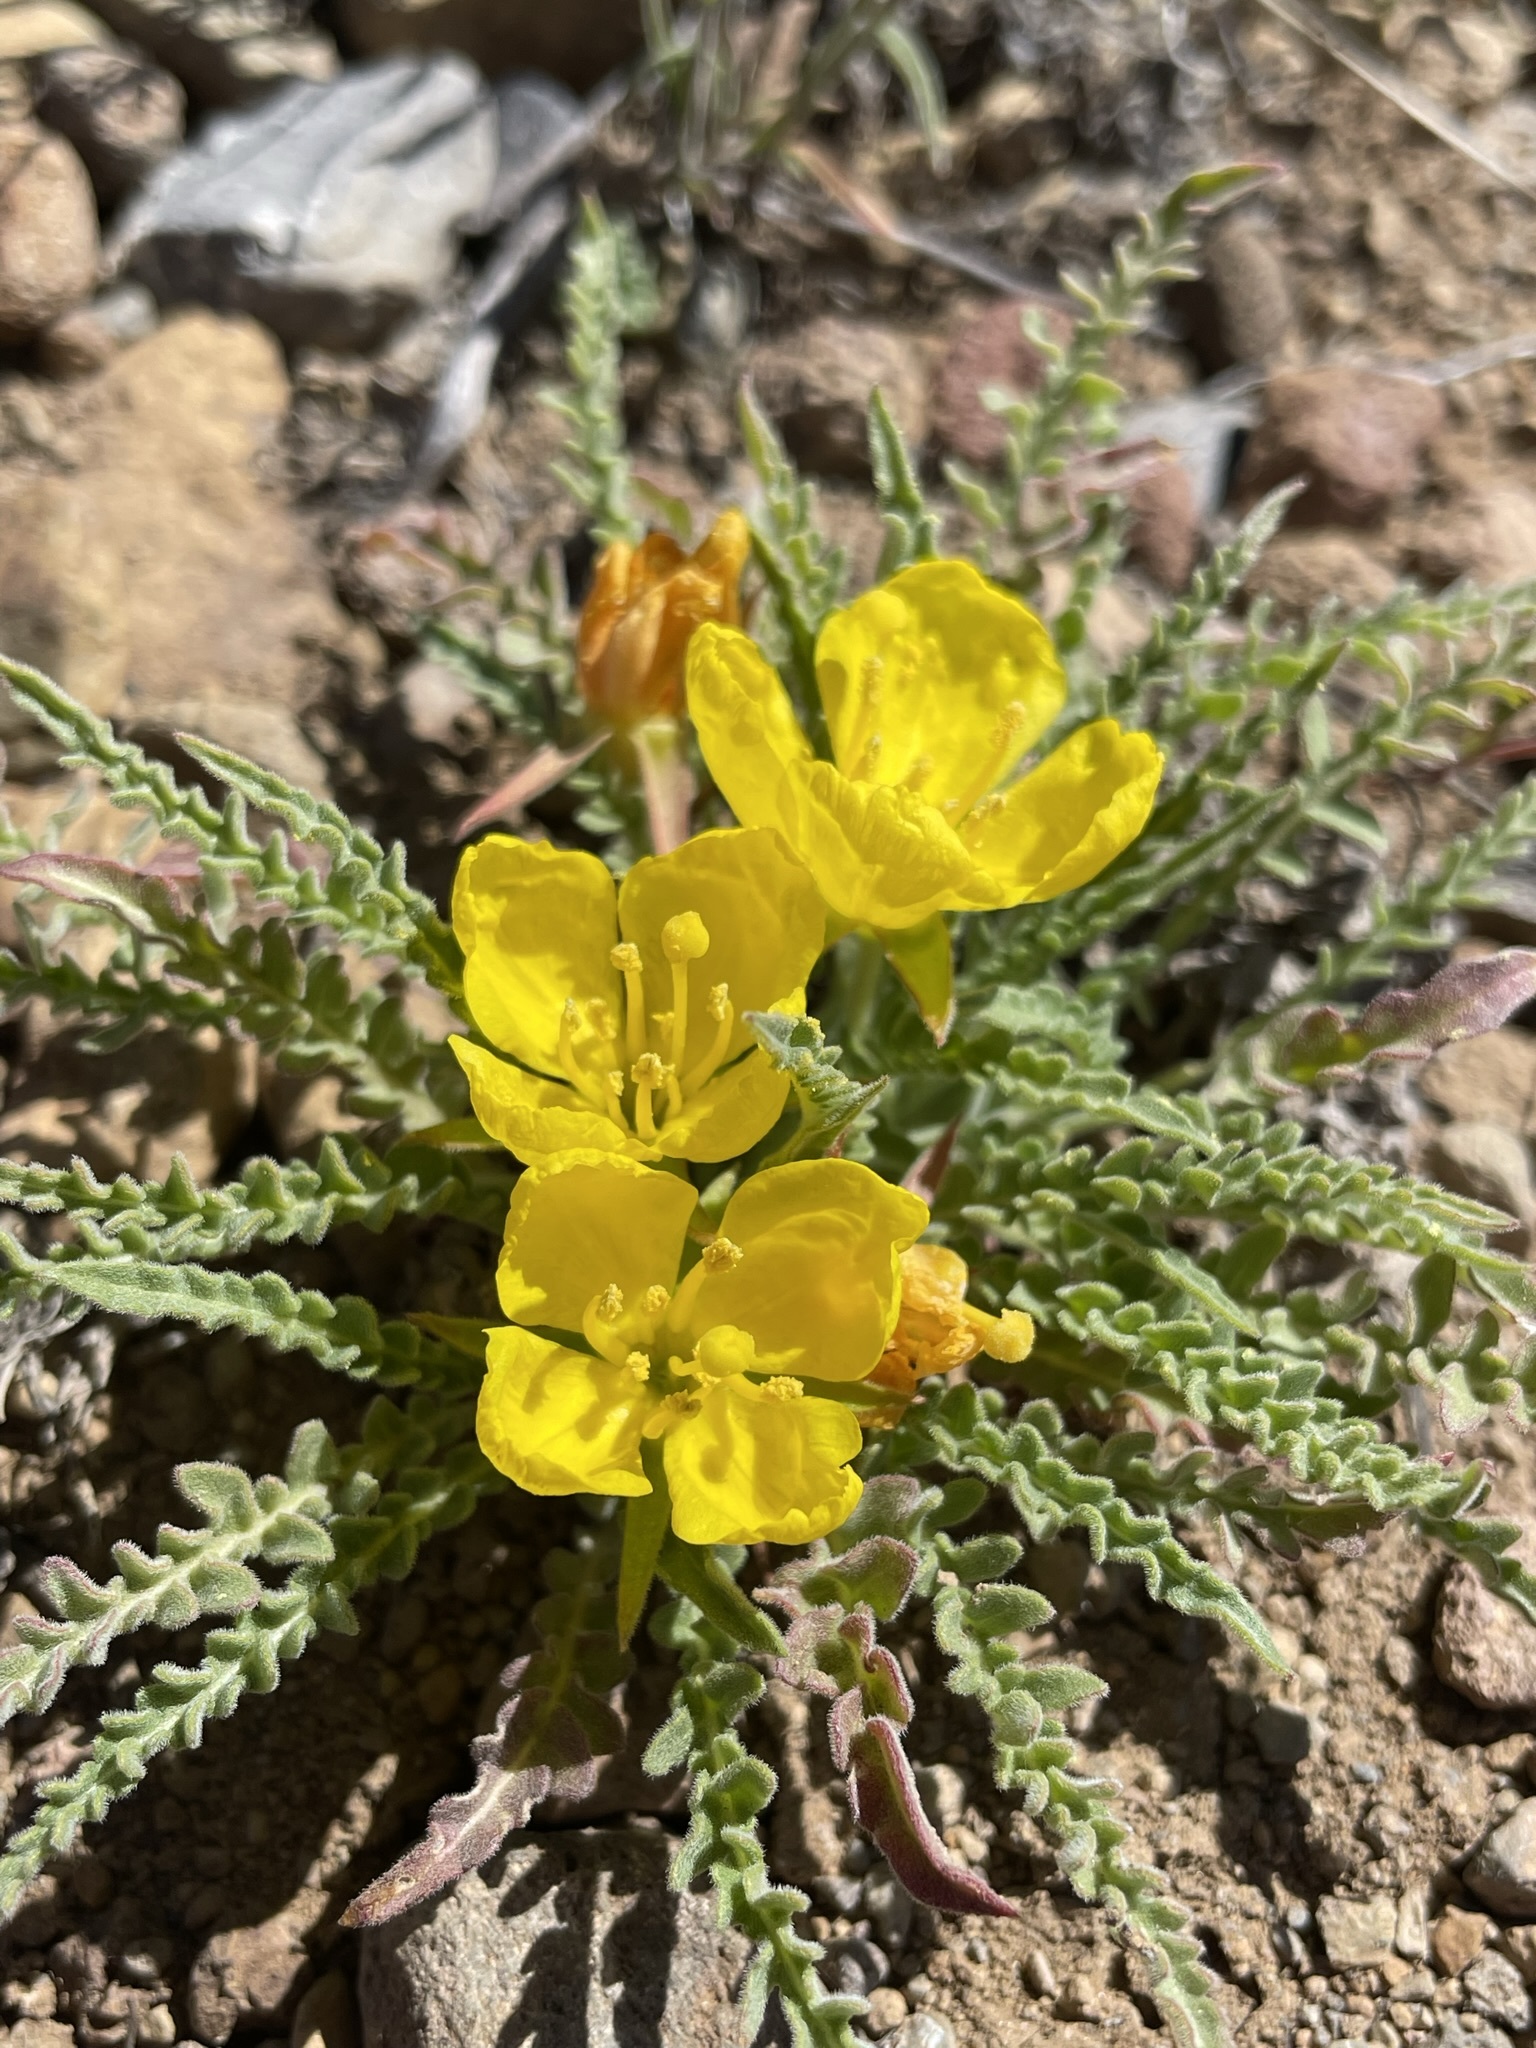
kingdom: Plantae
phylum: Tracheophyta
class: Magnoliopsida
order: Myrtales
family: Onagraceae
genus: Taraxia
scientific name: Taraxia tanacetifolia
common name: Tansyleaf evening primrose
